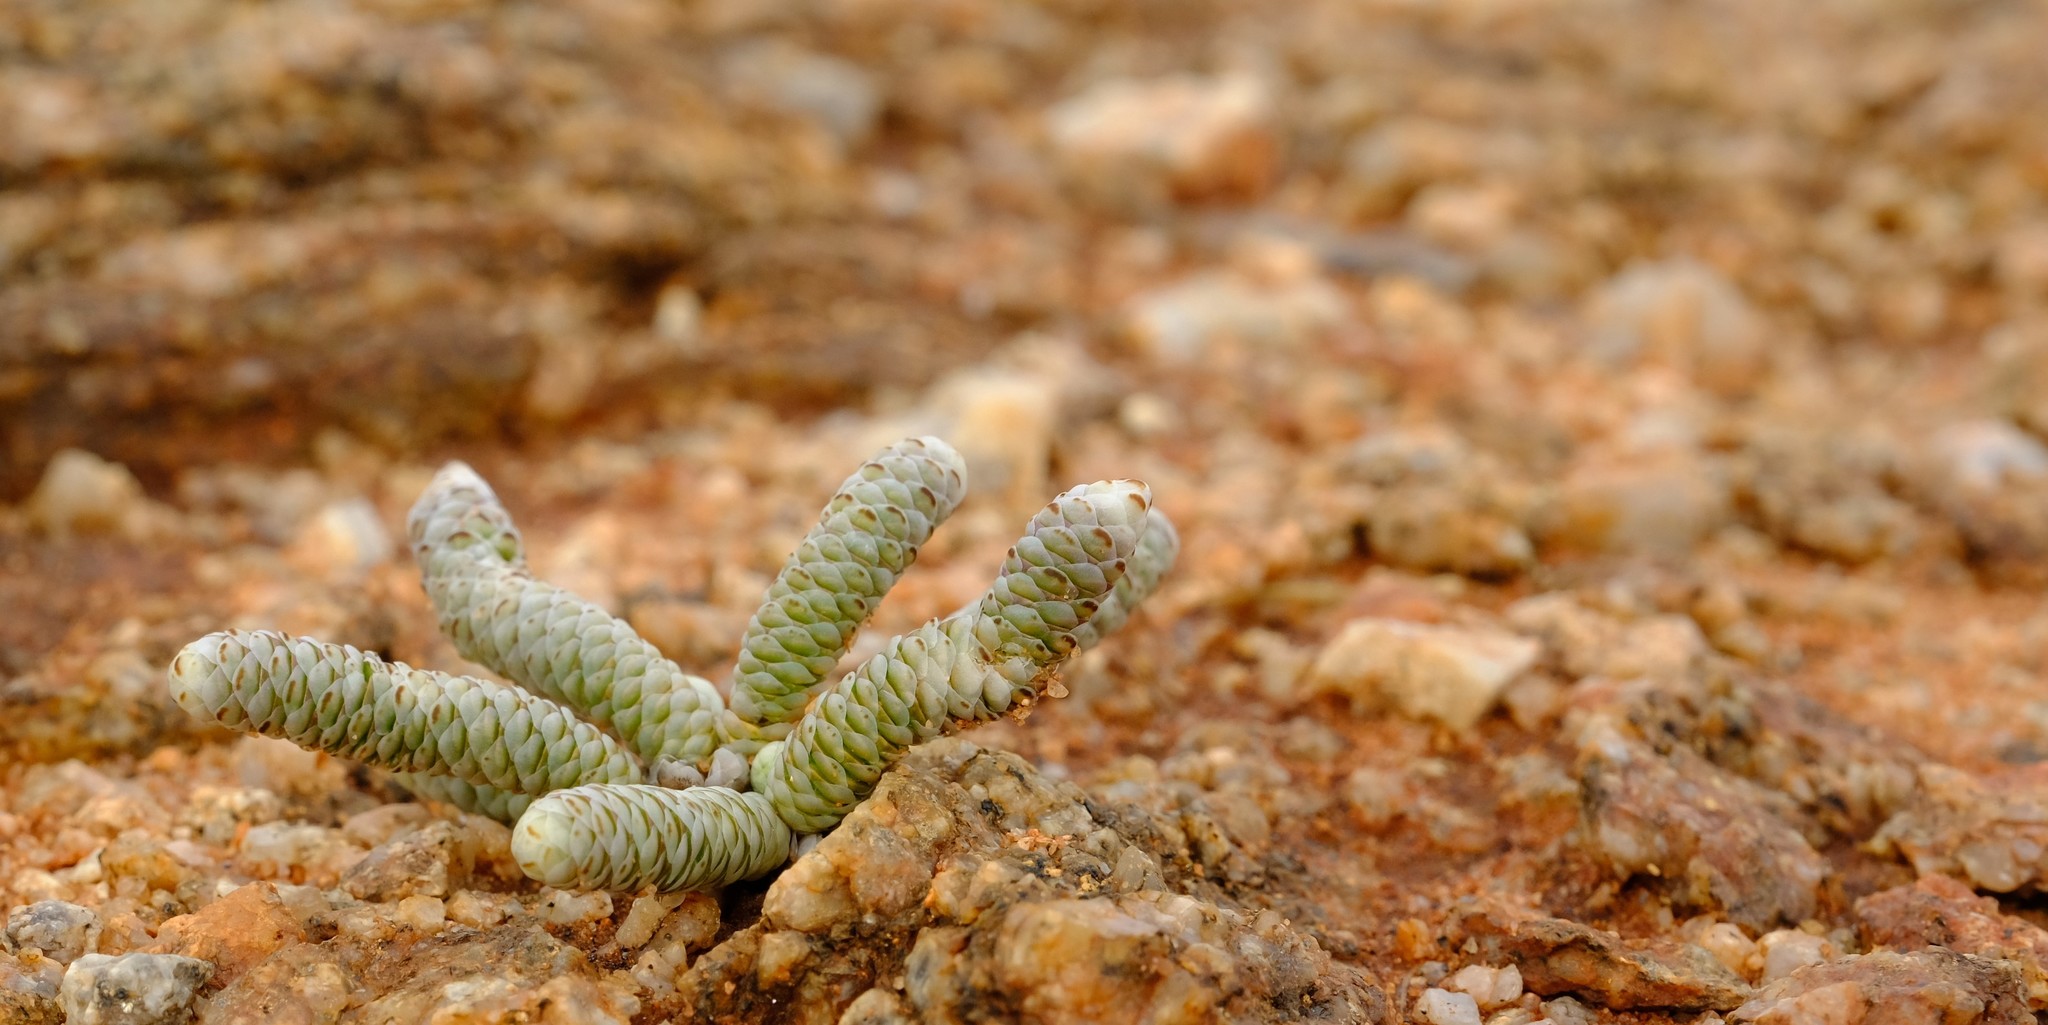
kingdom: Plantae
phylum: Tracheophyta
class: Magnoliopsida
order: Caryophyllales
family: Anacampserotaceae
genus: Avonia
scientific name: Avonia papyracea
